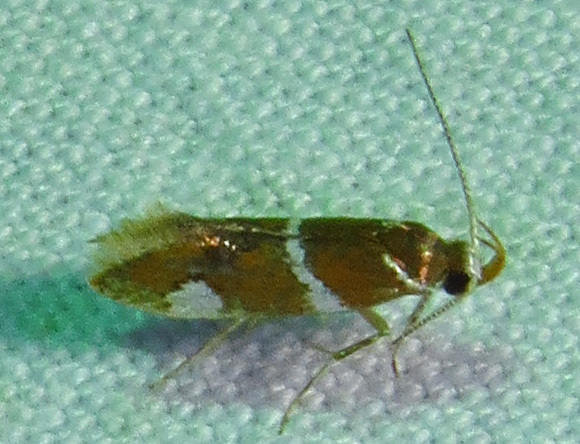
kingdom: Animalia
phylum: Arthropoda
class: Insecta
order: Lepidoptera
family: Oecophoridae
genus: Promalactis
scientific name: Promalactis suzukiella
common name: Moth
